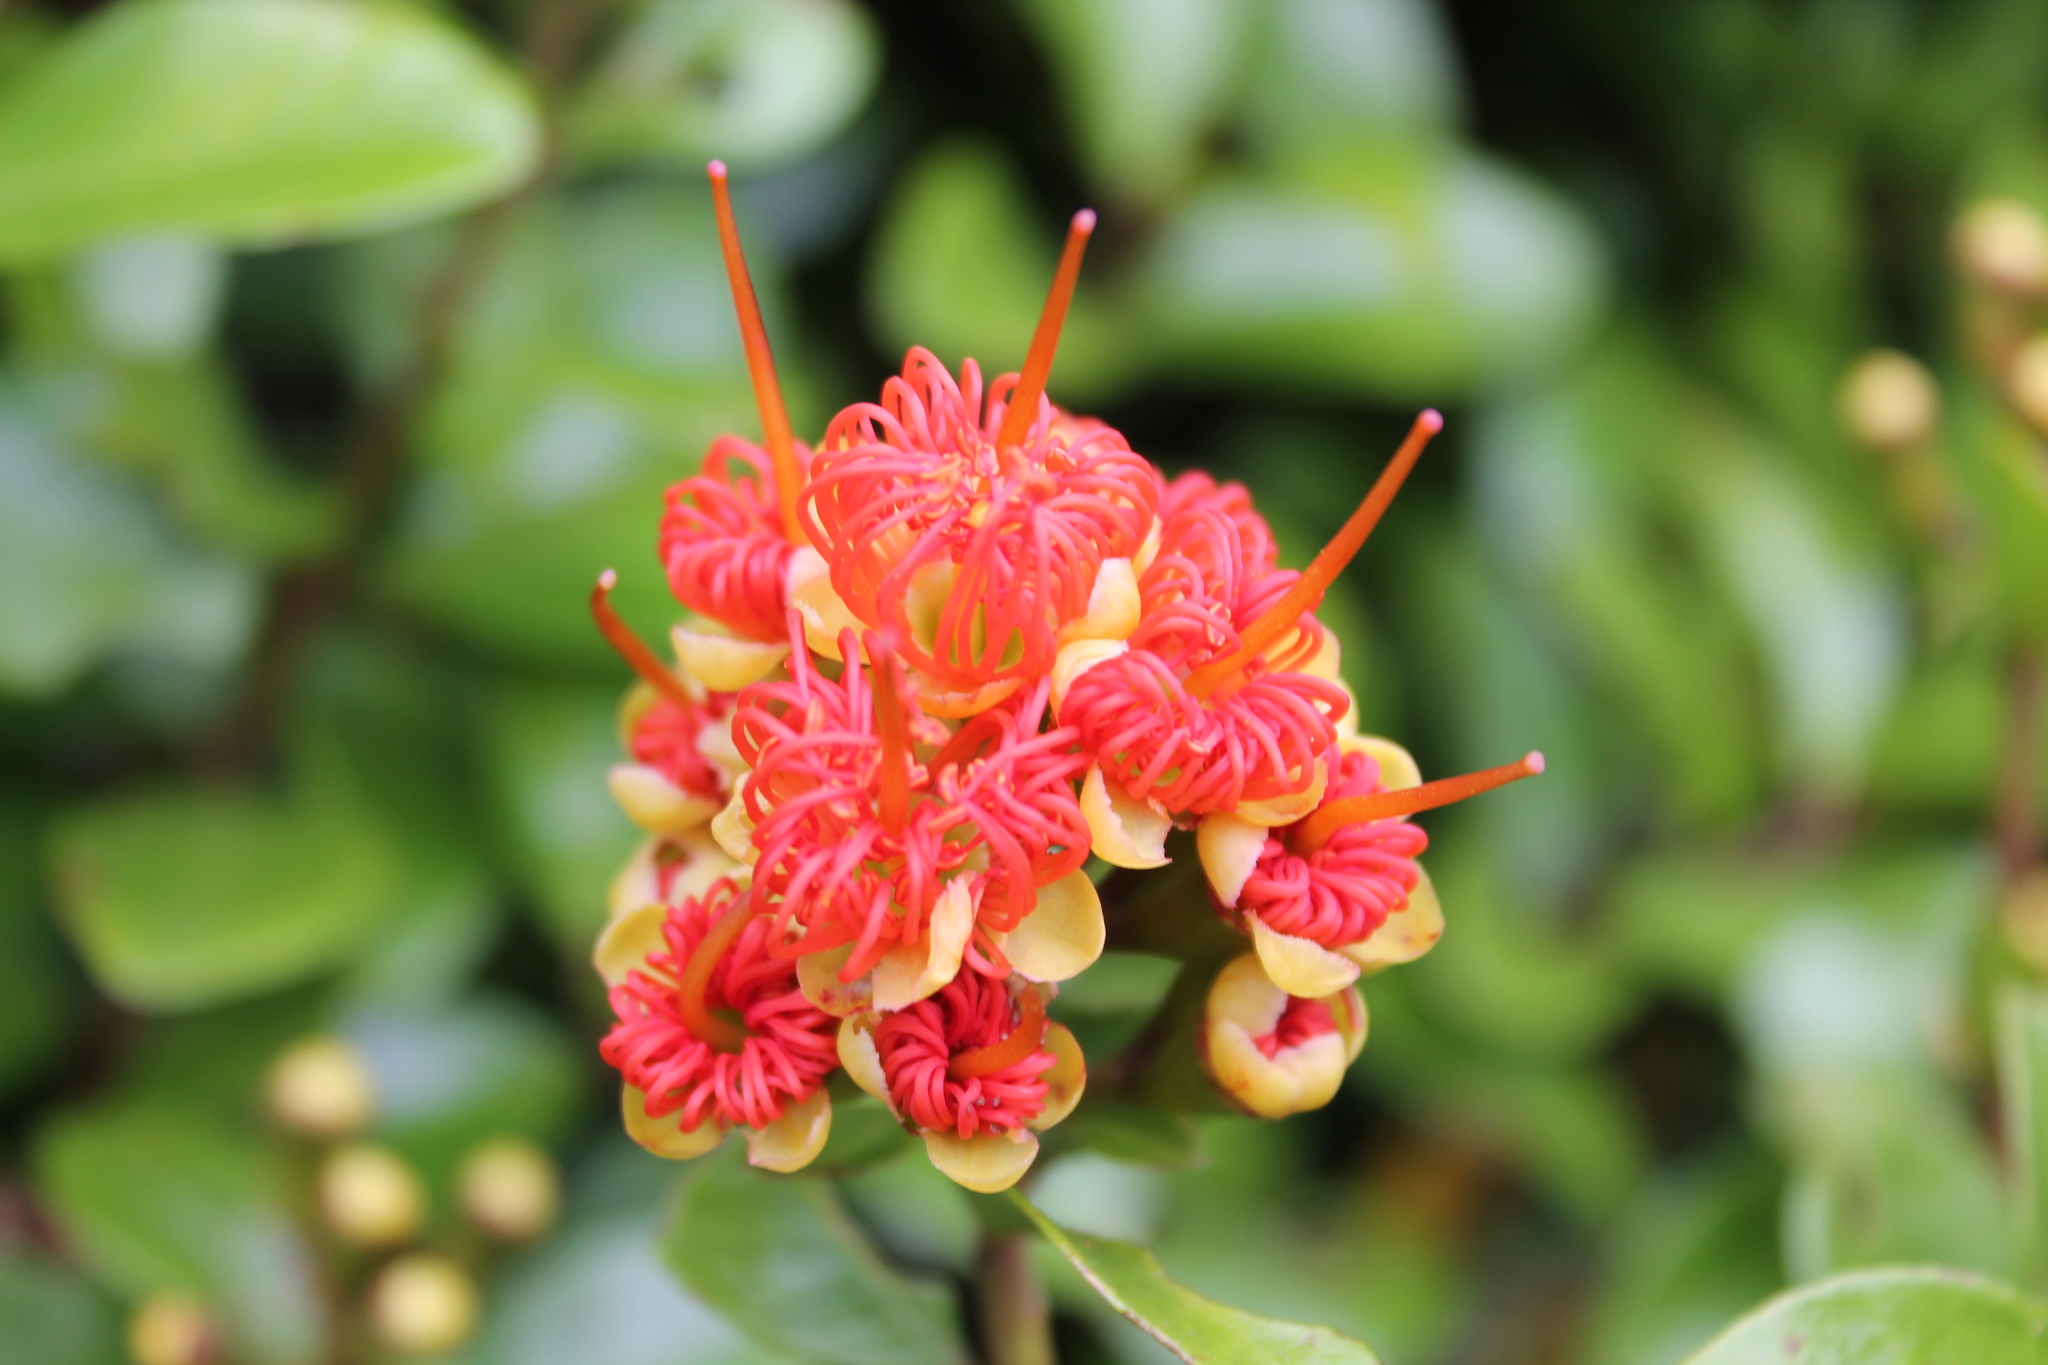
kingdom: Plantae
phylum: Tracheophyta
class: Magnoliopsida
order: Myrtales
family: Myrtaceae
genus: Metrosideros
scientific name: Metrosideros fulgens
